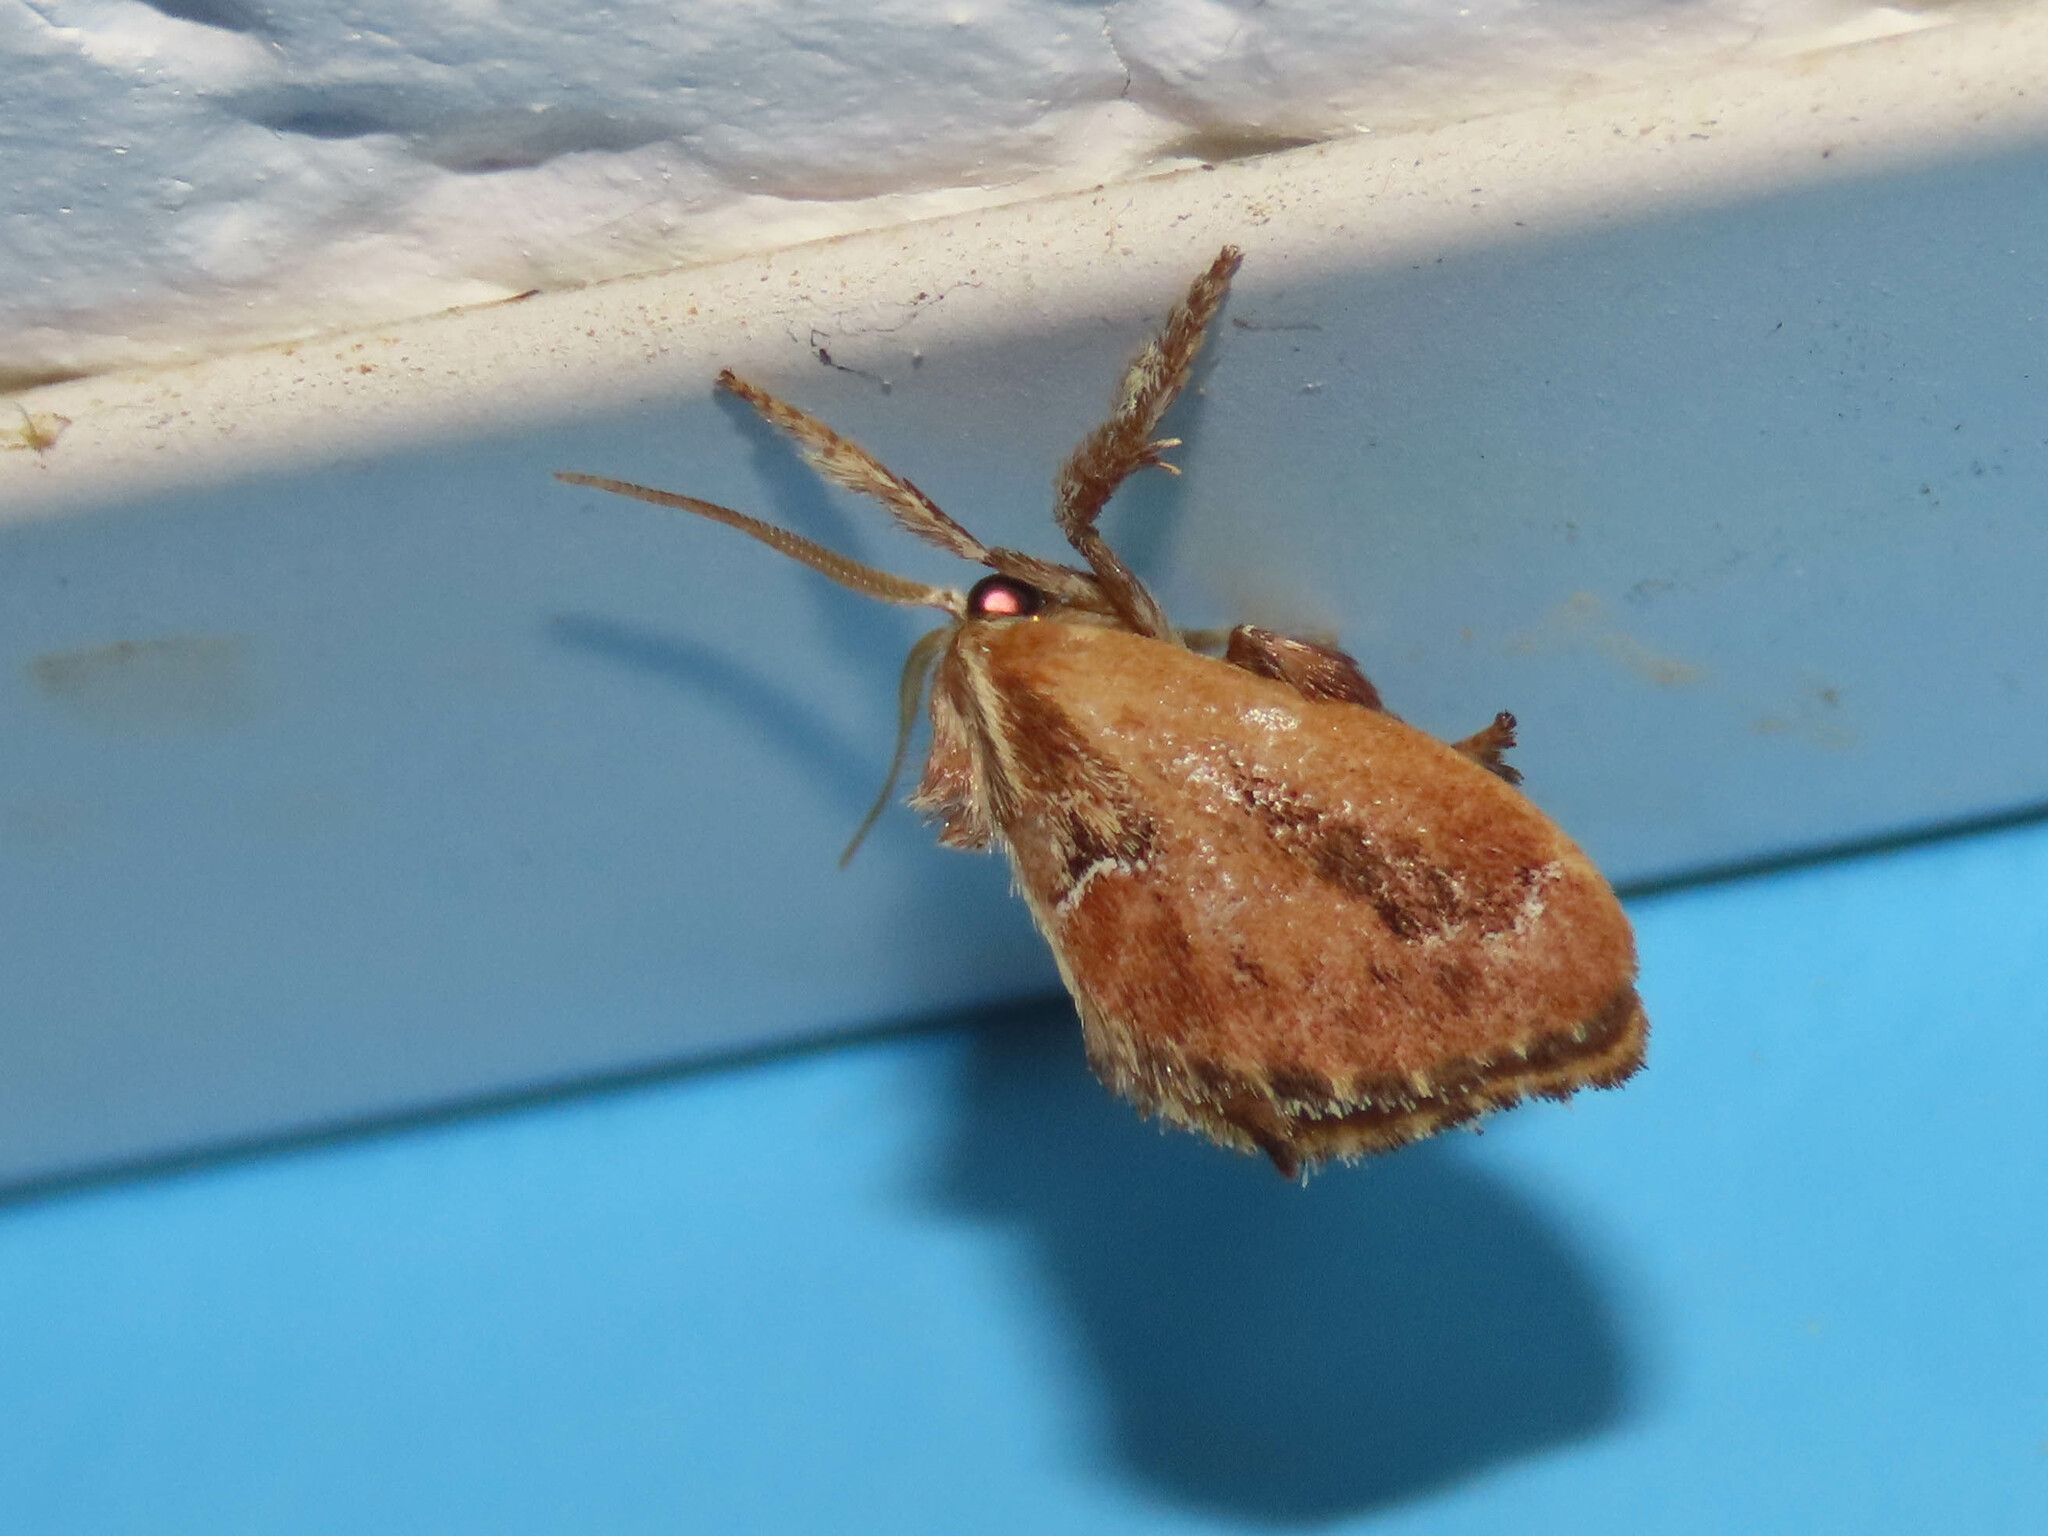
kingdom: Animalia
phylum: Arthropoda
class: Insecta
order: Lepidoptera
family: Limacodidae
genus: Adoneta
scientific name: Adoneta spinuloides
